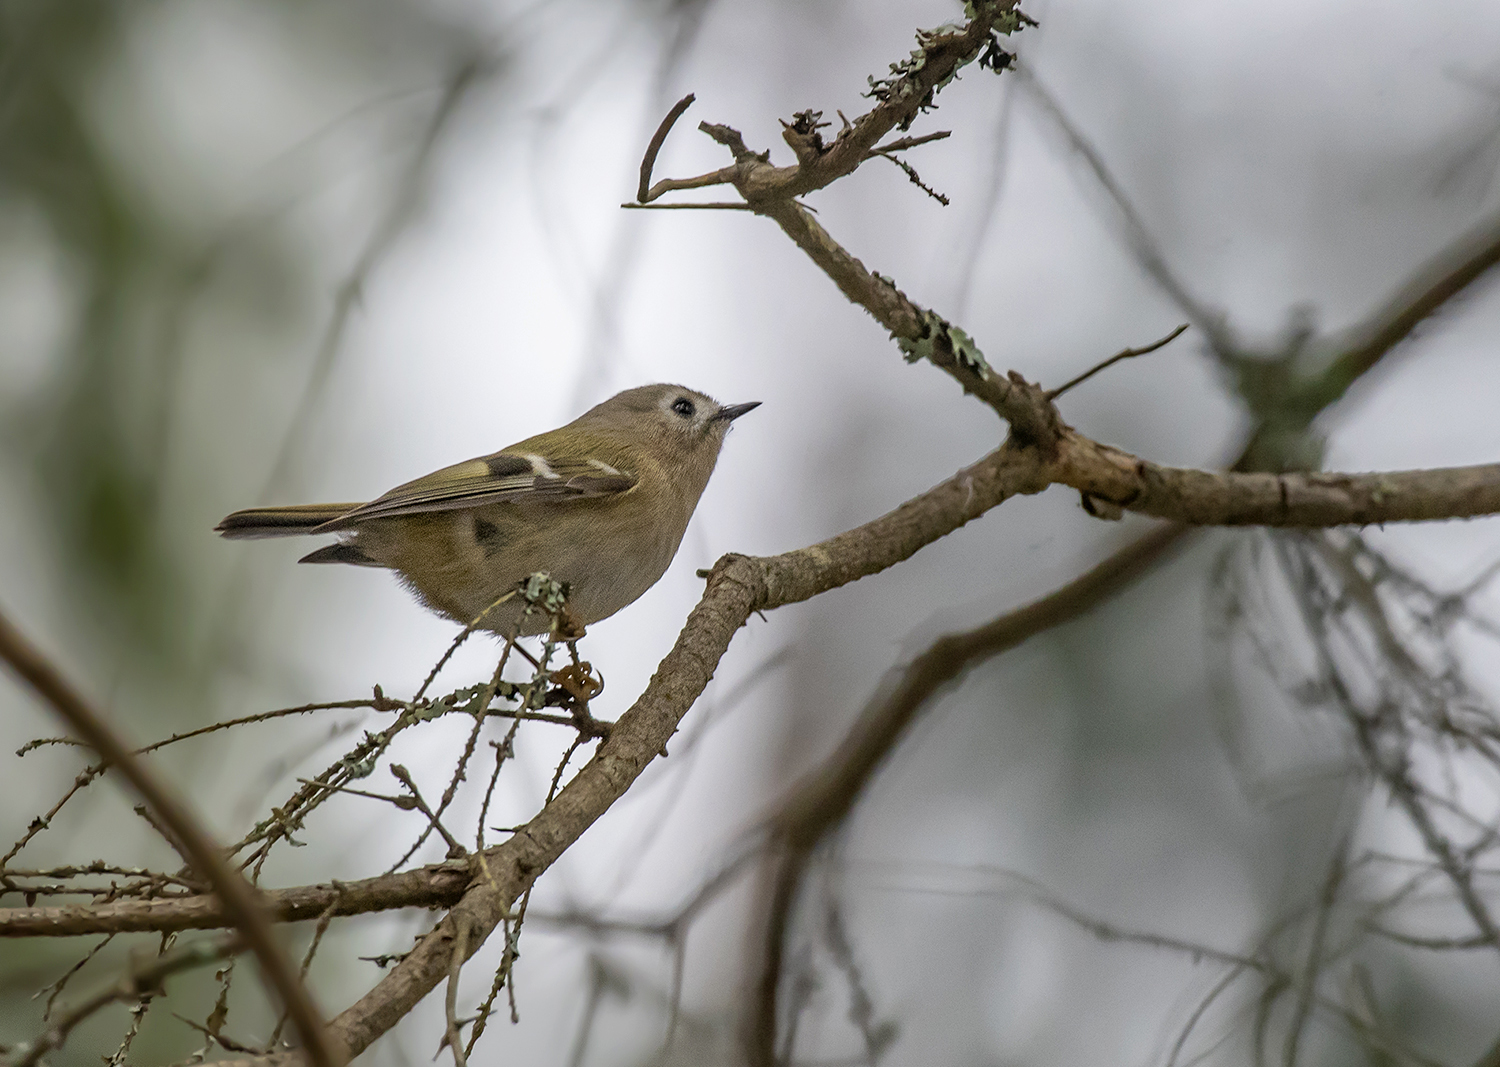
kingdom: Animalia
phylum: Chordata
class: Aves
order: Passeriformes
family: Regulidae
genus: Regulus
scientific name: Regulus regulus
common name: Goldcrest
